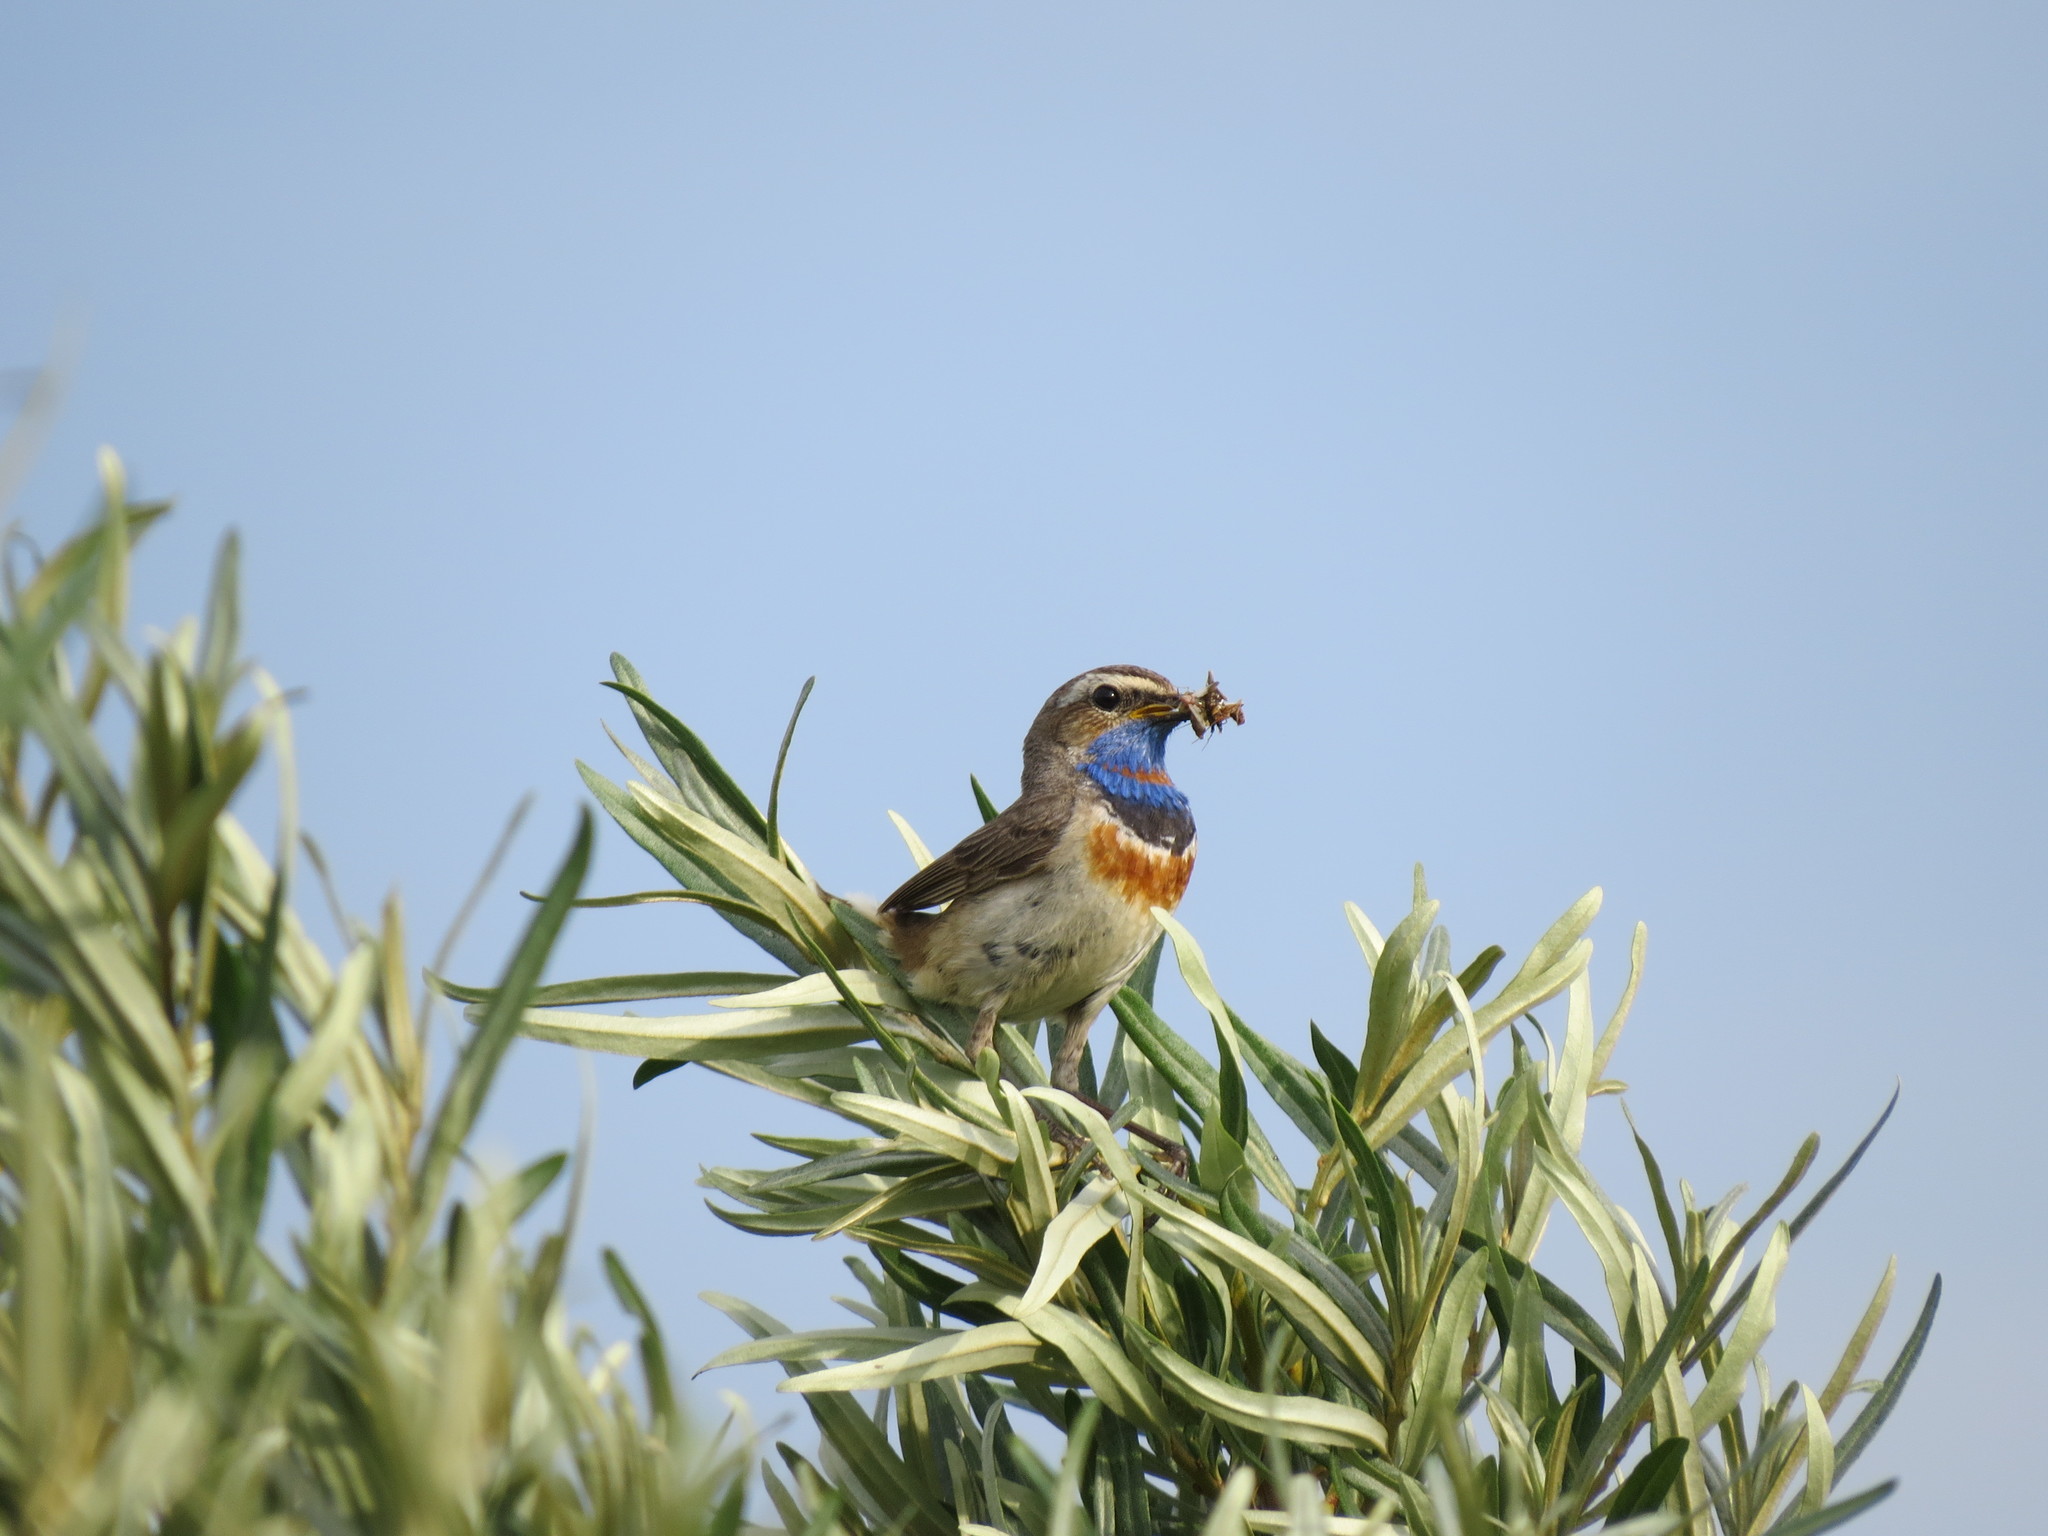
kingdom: Animalia
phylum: Chordata
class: Aves
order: Passeriformes
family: Muscicapidae
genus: Luscinia
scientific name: Luscinia svecica
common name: Bluethroat
